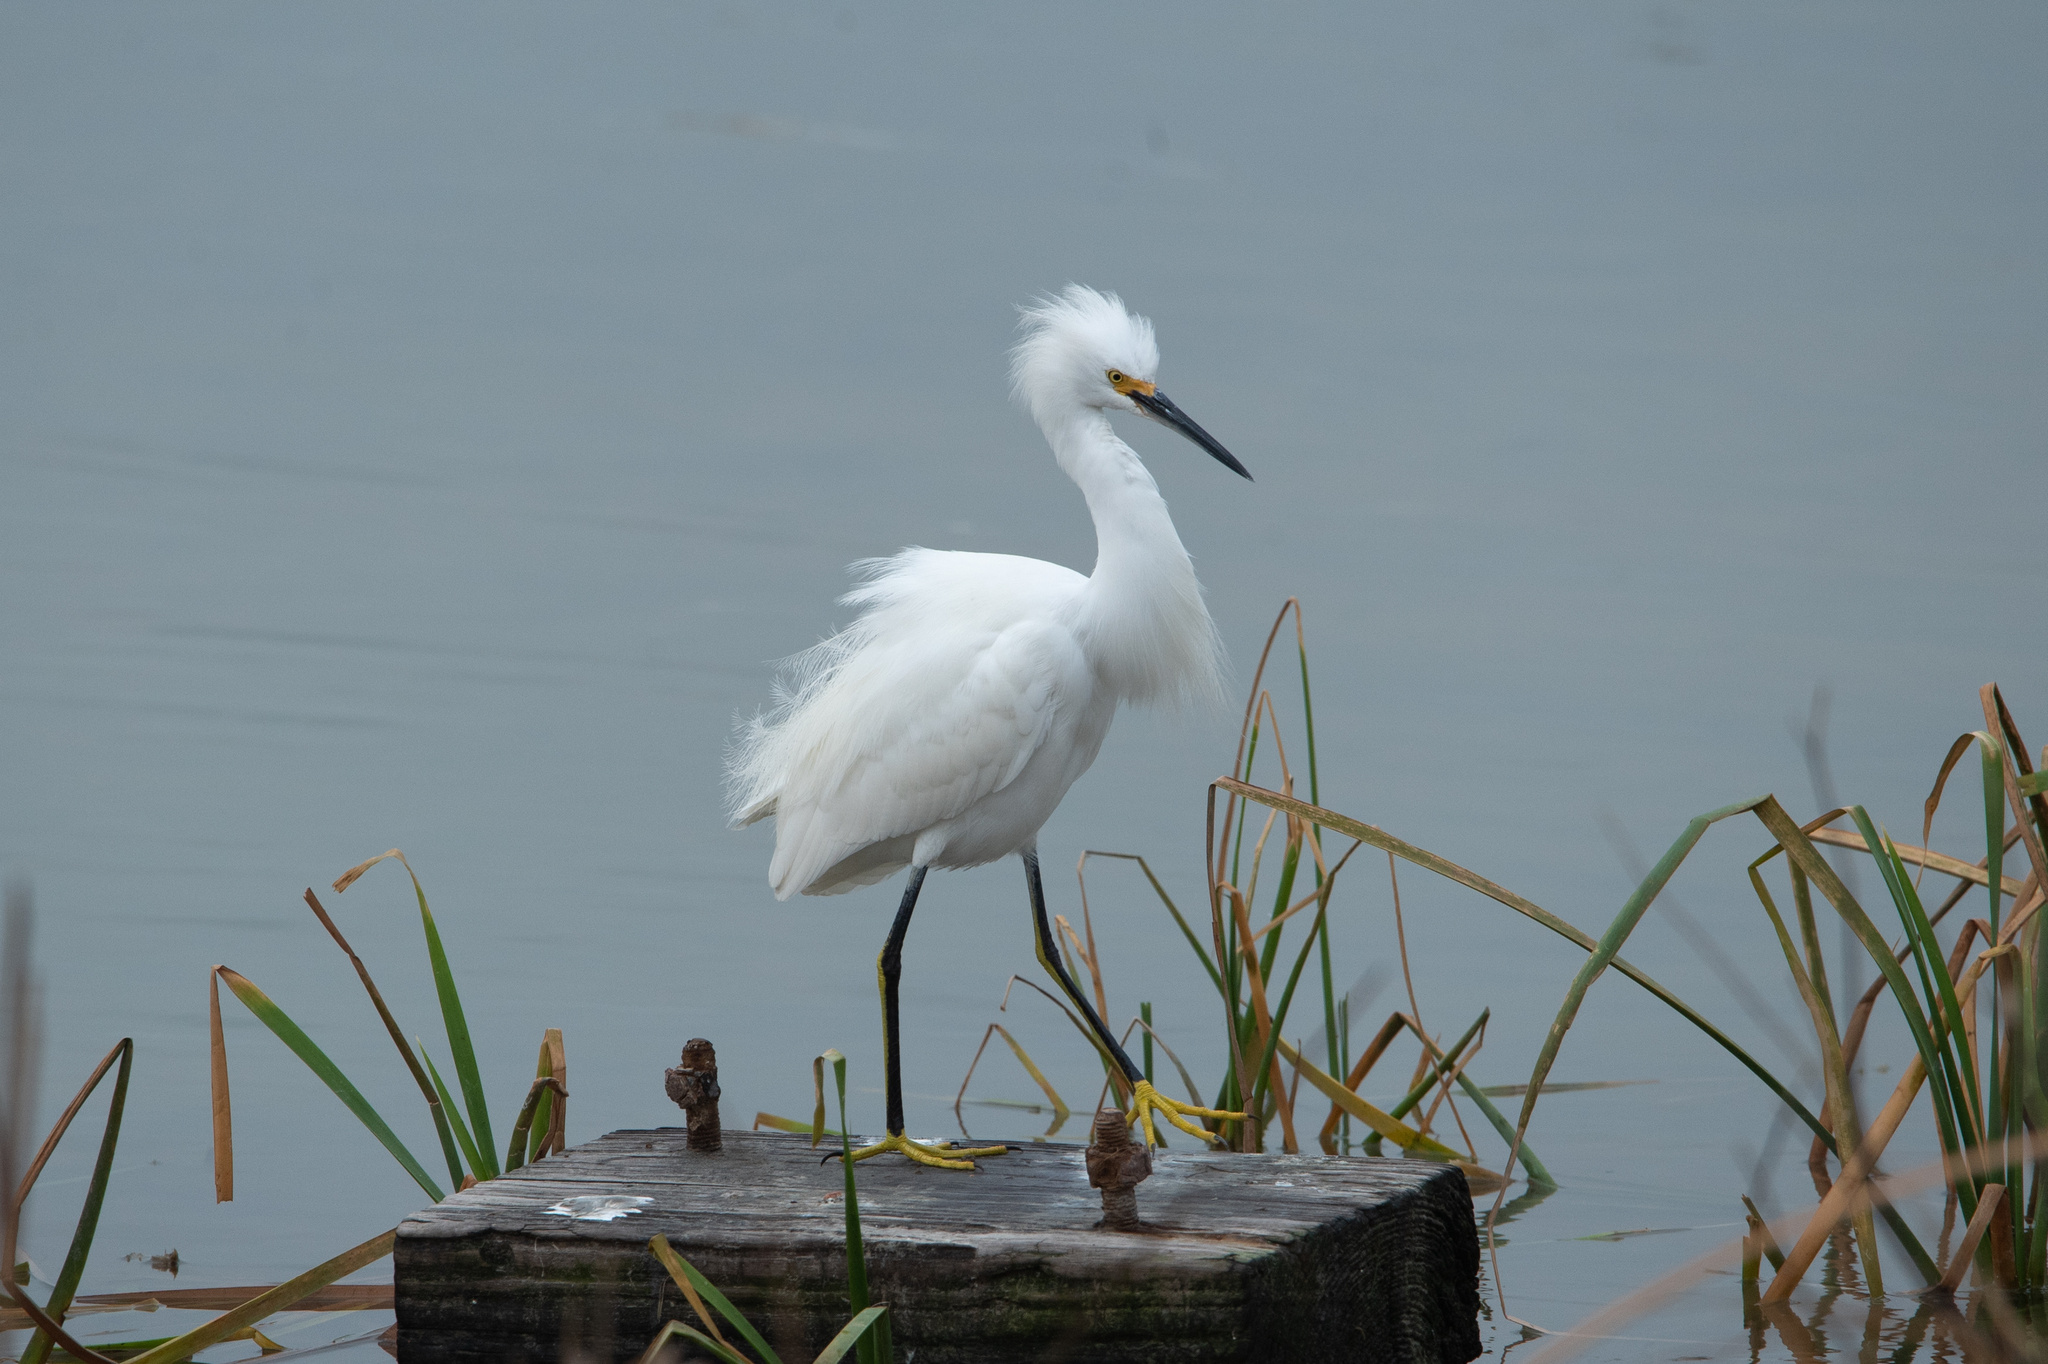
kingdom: Animalia
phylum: Chordata
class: Aves
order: Pelecaniformes
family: Ardeidae
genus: Egretta
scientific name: Egretta thula
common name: Snowy egret
